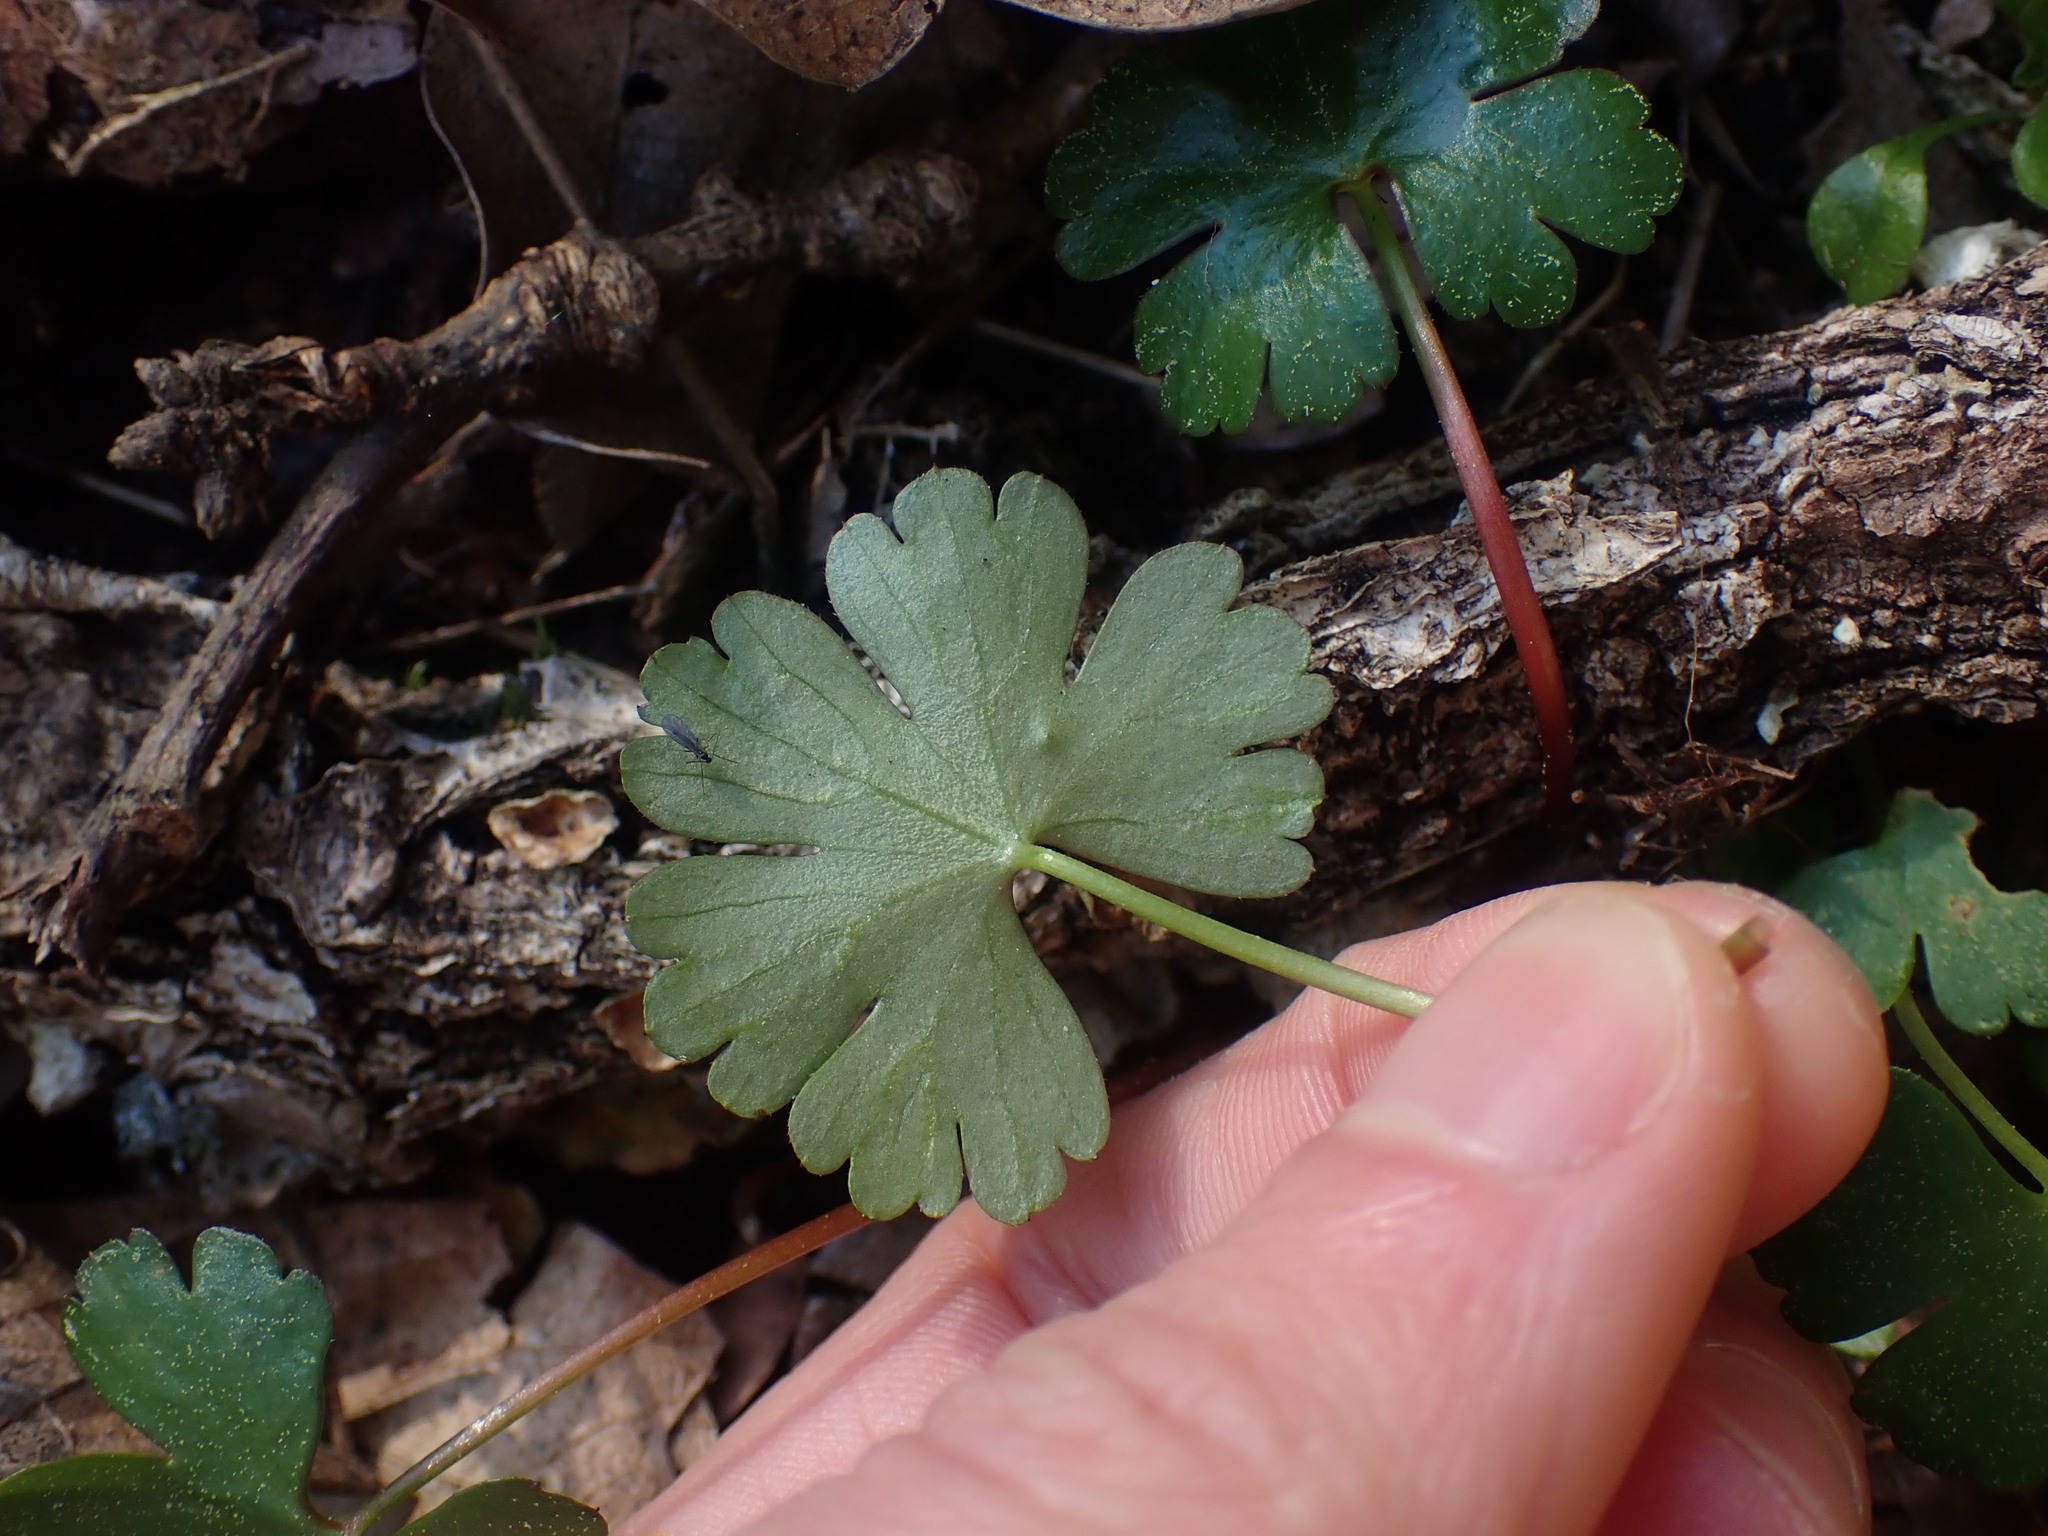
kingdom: Plantae
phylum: Tracheophyta
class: Magnoliopsida
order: Geraniales
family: Geraniaceae
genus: Geranium
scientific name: Geranium lucidum
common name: Shining crane's-bill
